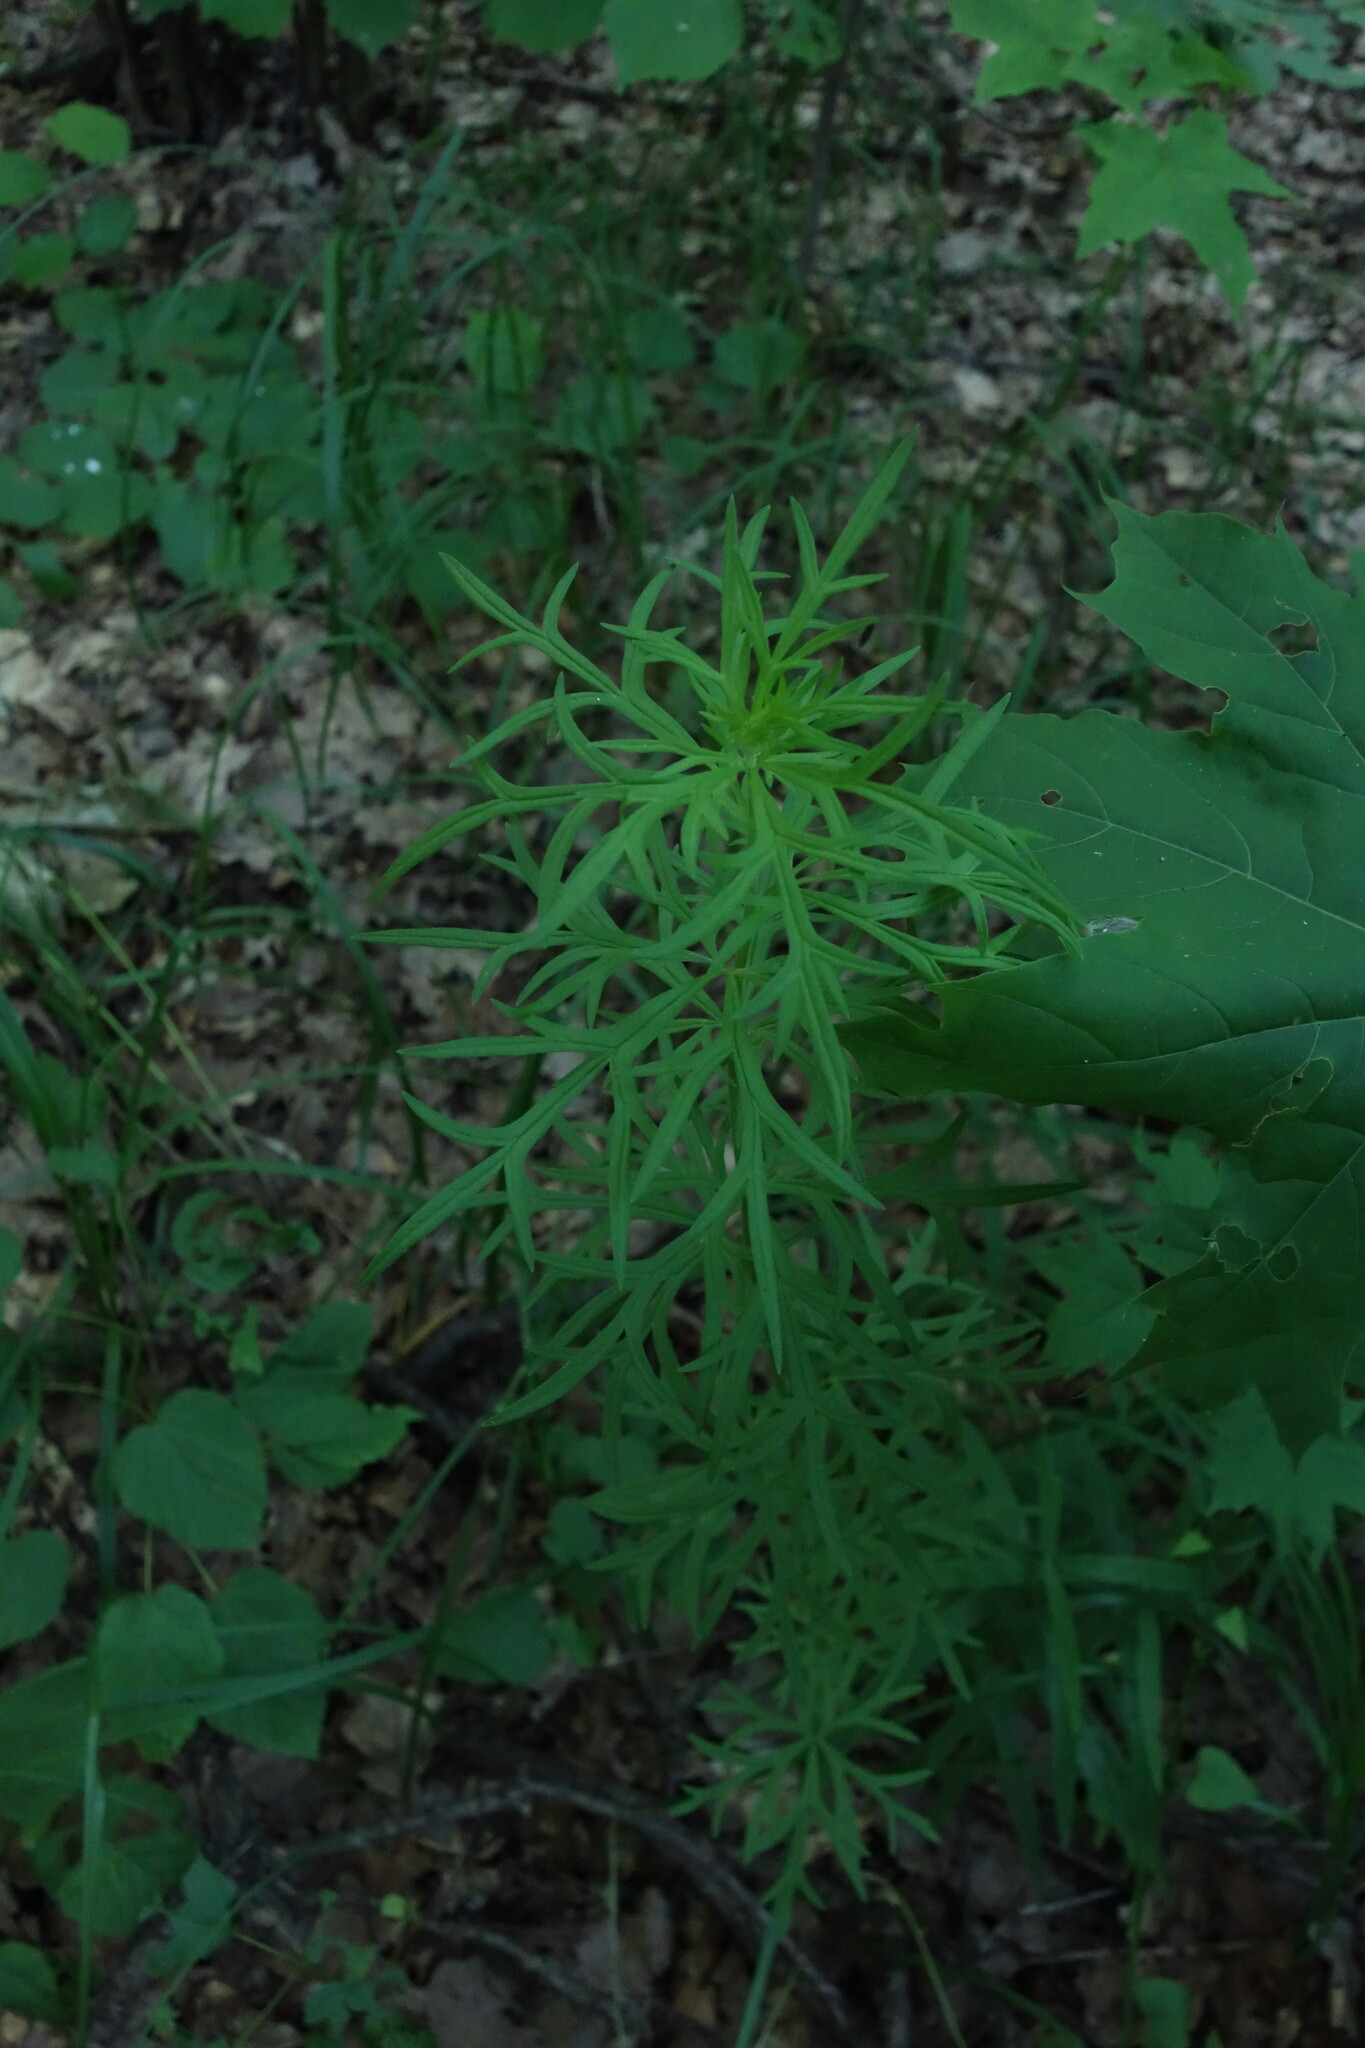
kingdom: Plantae
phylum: Tracheophyta
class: Magnoliopsida
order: Ranunculales
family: Ranunculaceae
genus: Aconitum
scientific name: Aconitum anthora
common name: Yellow monkshood
